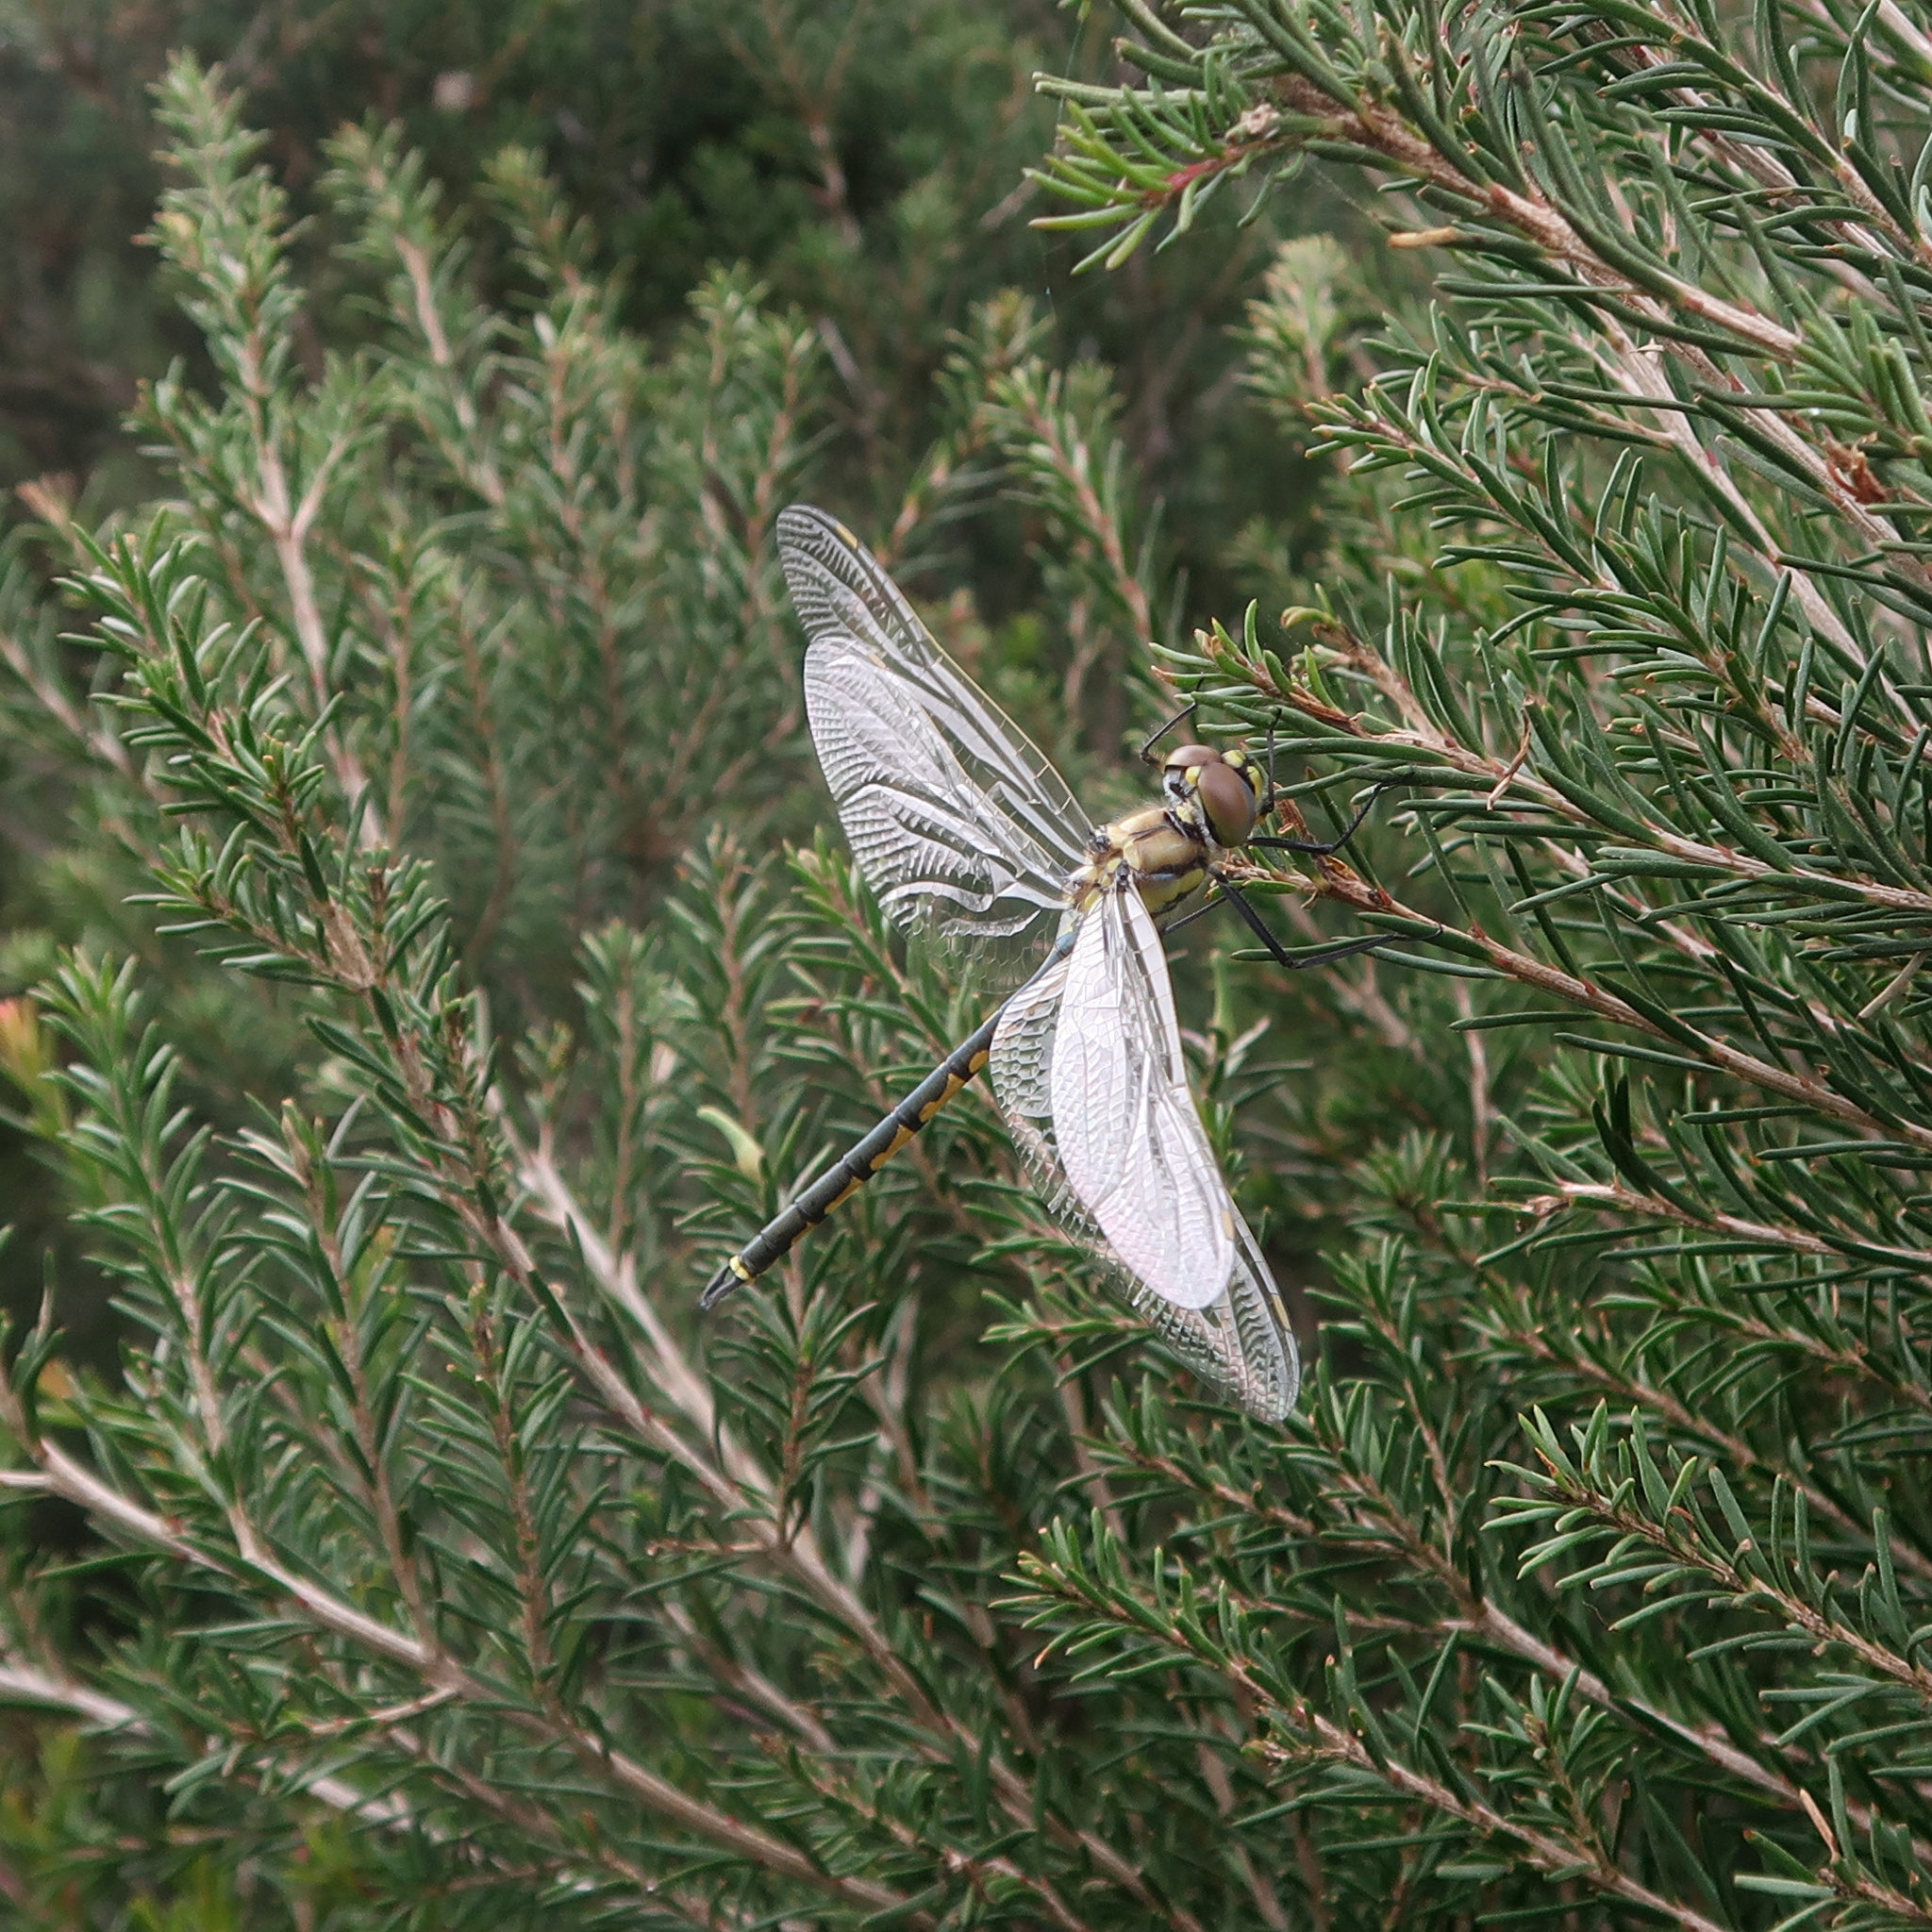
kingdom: Animalia
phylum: Arthropoda
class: Insecta
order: Odonata
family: Corduliidae
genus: Hemicordulia
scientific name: Hemicordulia tau
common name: Tau emerald
